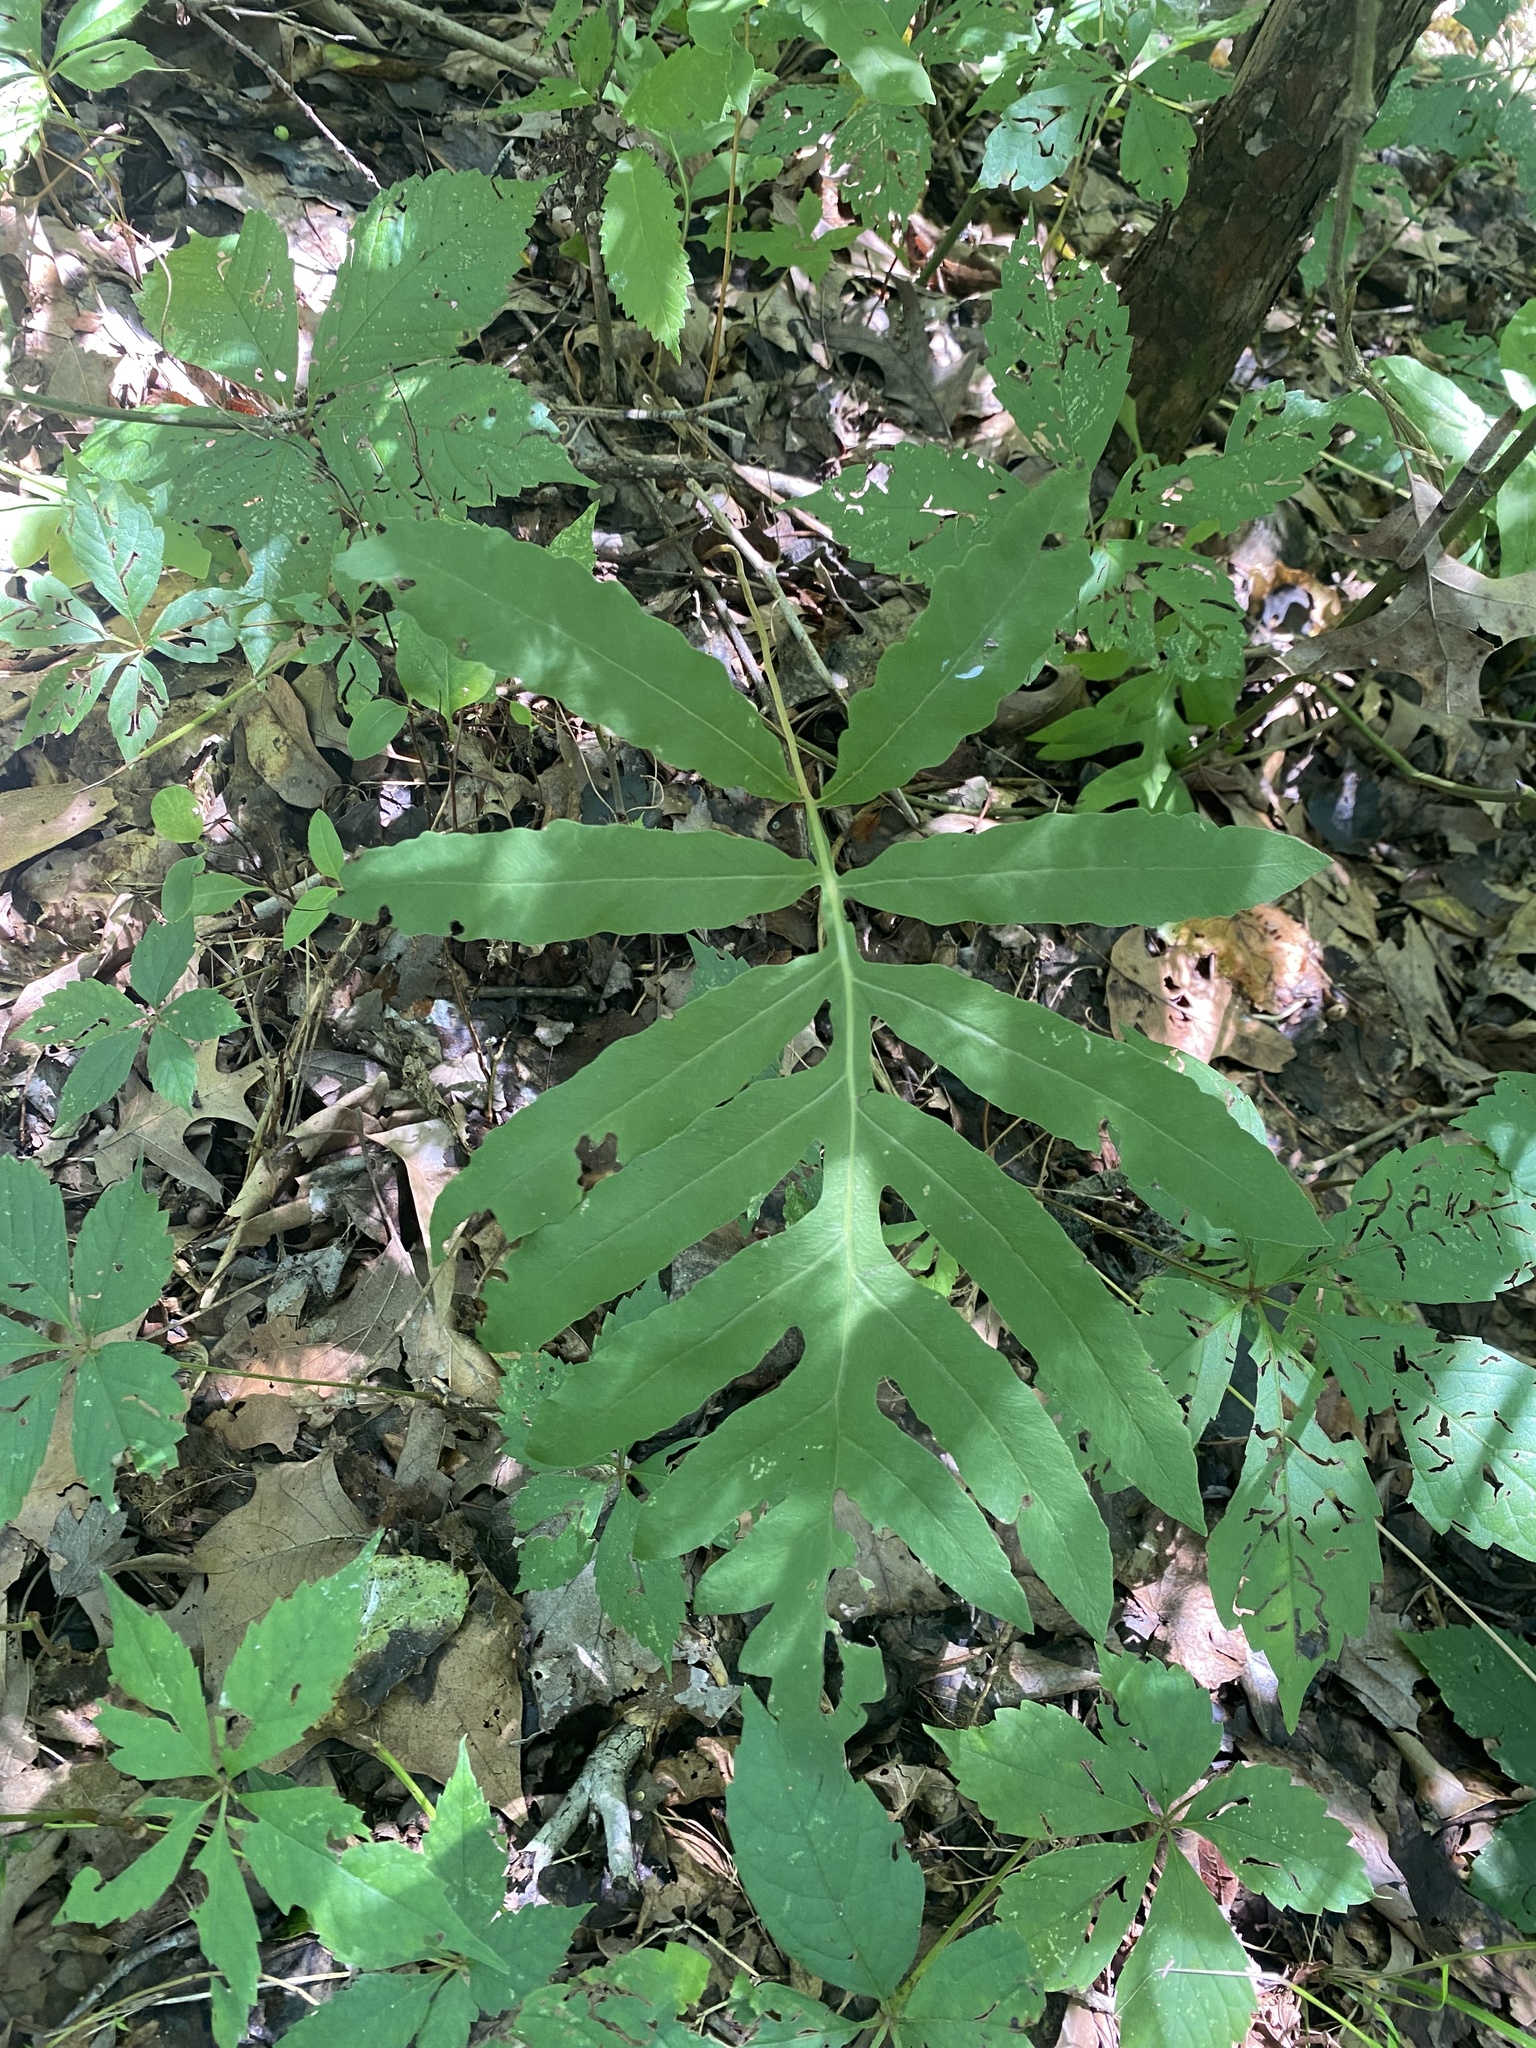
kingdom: Plantae
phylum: Tracheophyta
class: Polypodiopsida
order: Polypodiales
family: Onocleaceae
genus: Onoclea
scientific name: Onoclea sensibilis
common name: Sensitive fern
